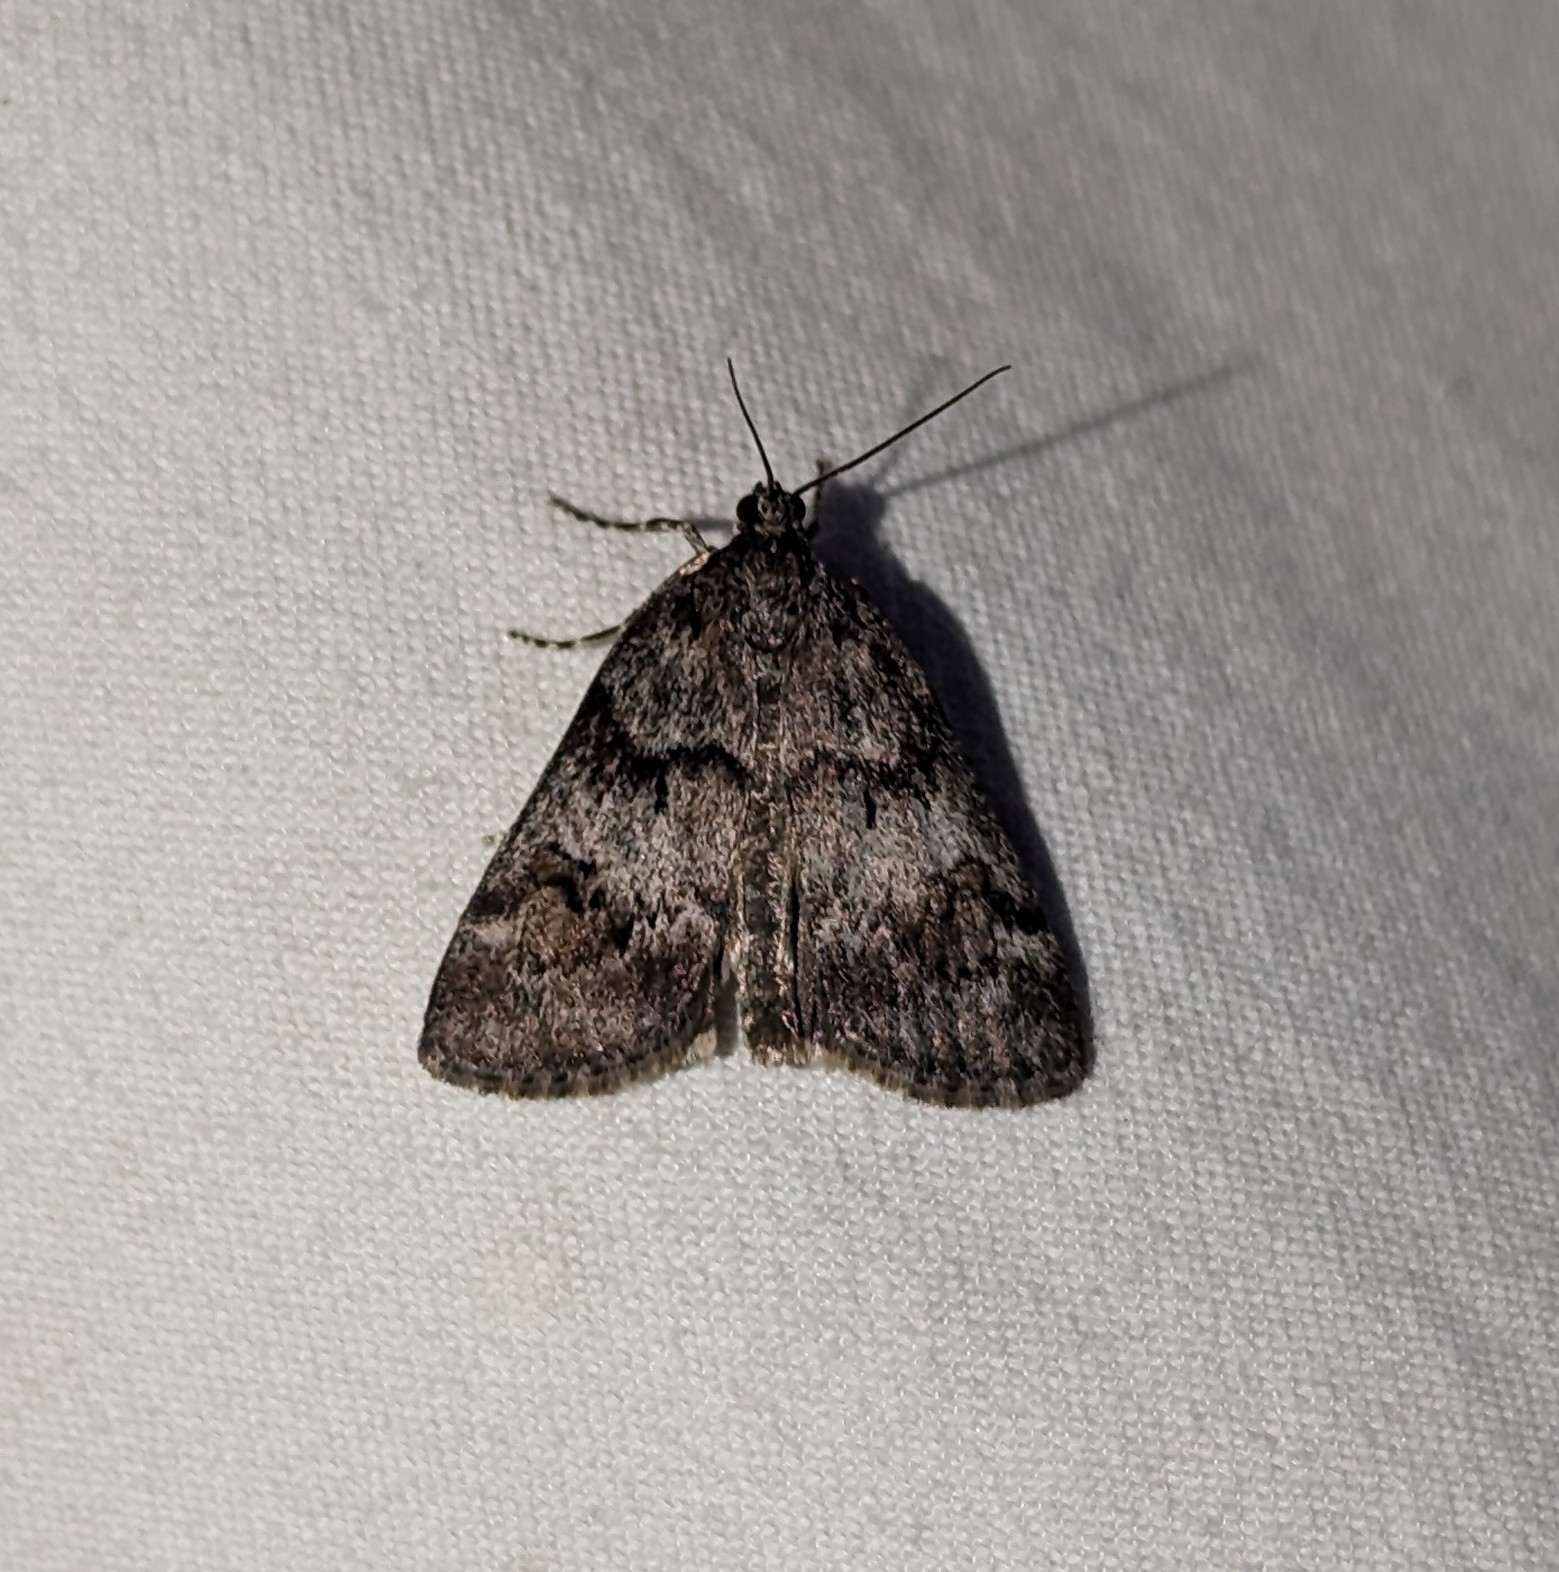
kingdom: Animalia
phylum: Arthropoda
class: Insecta
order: Lepidoptera
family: Crambidae
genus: Gesneria
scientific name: Gesneria centuriella
